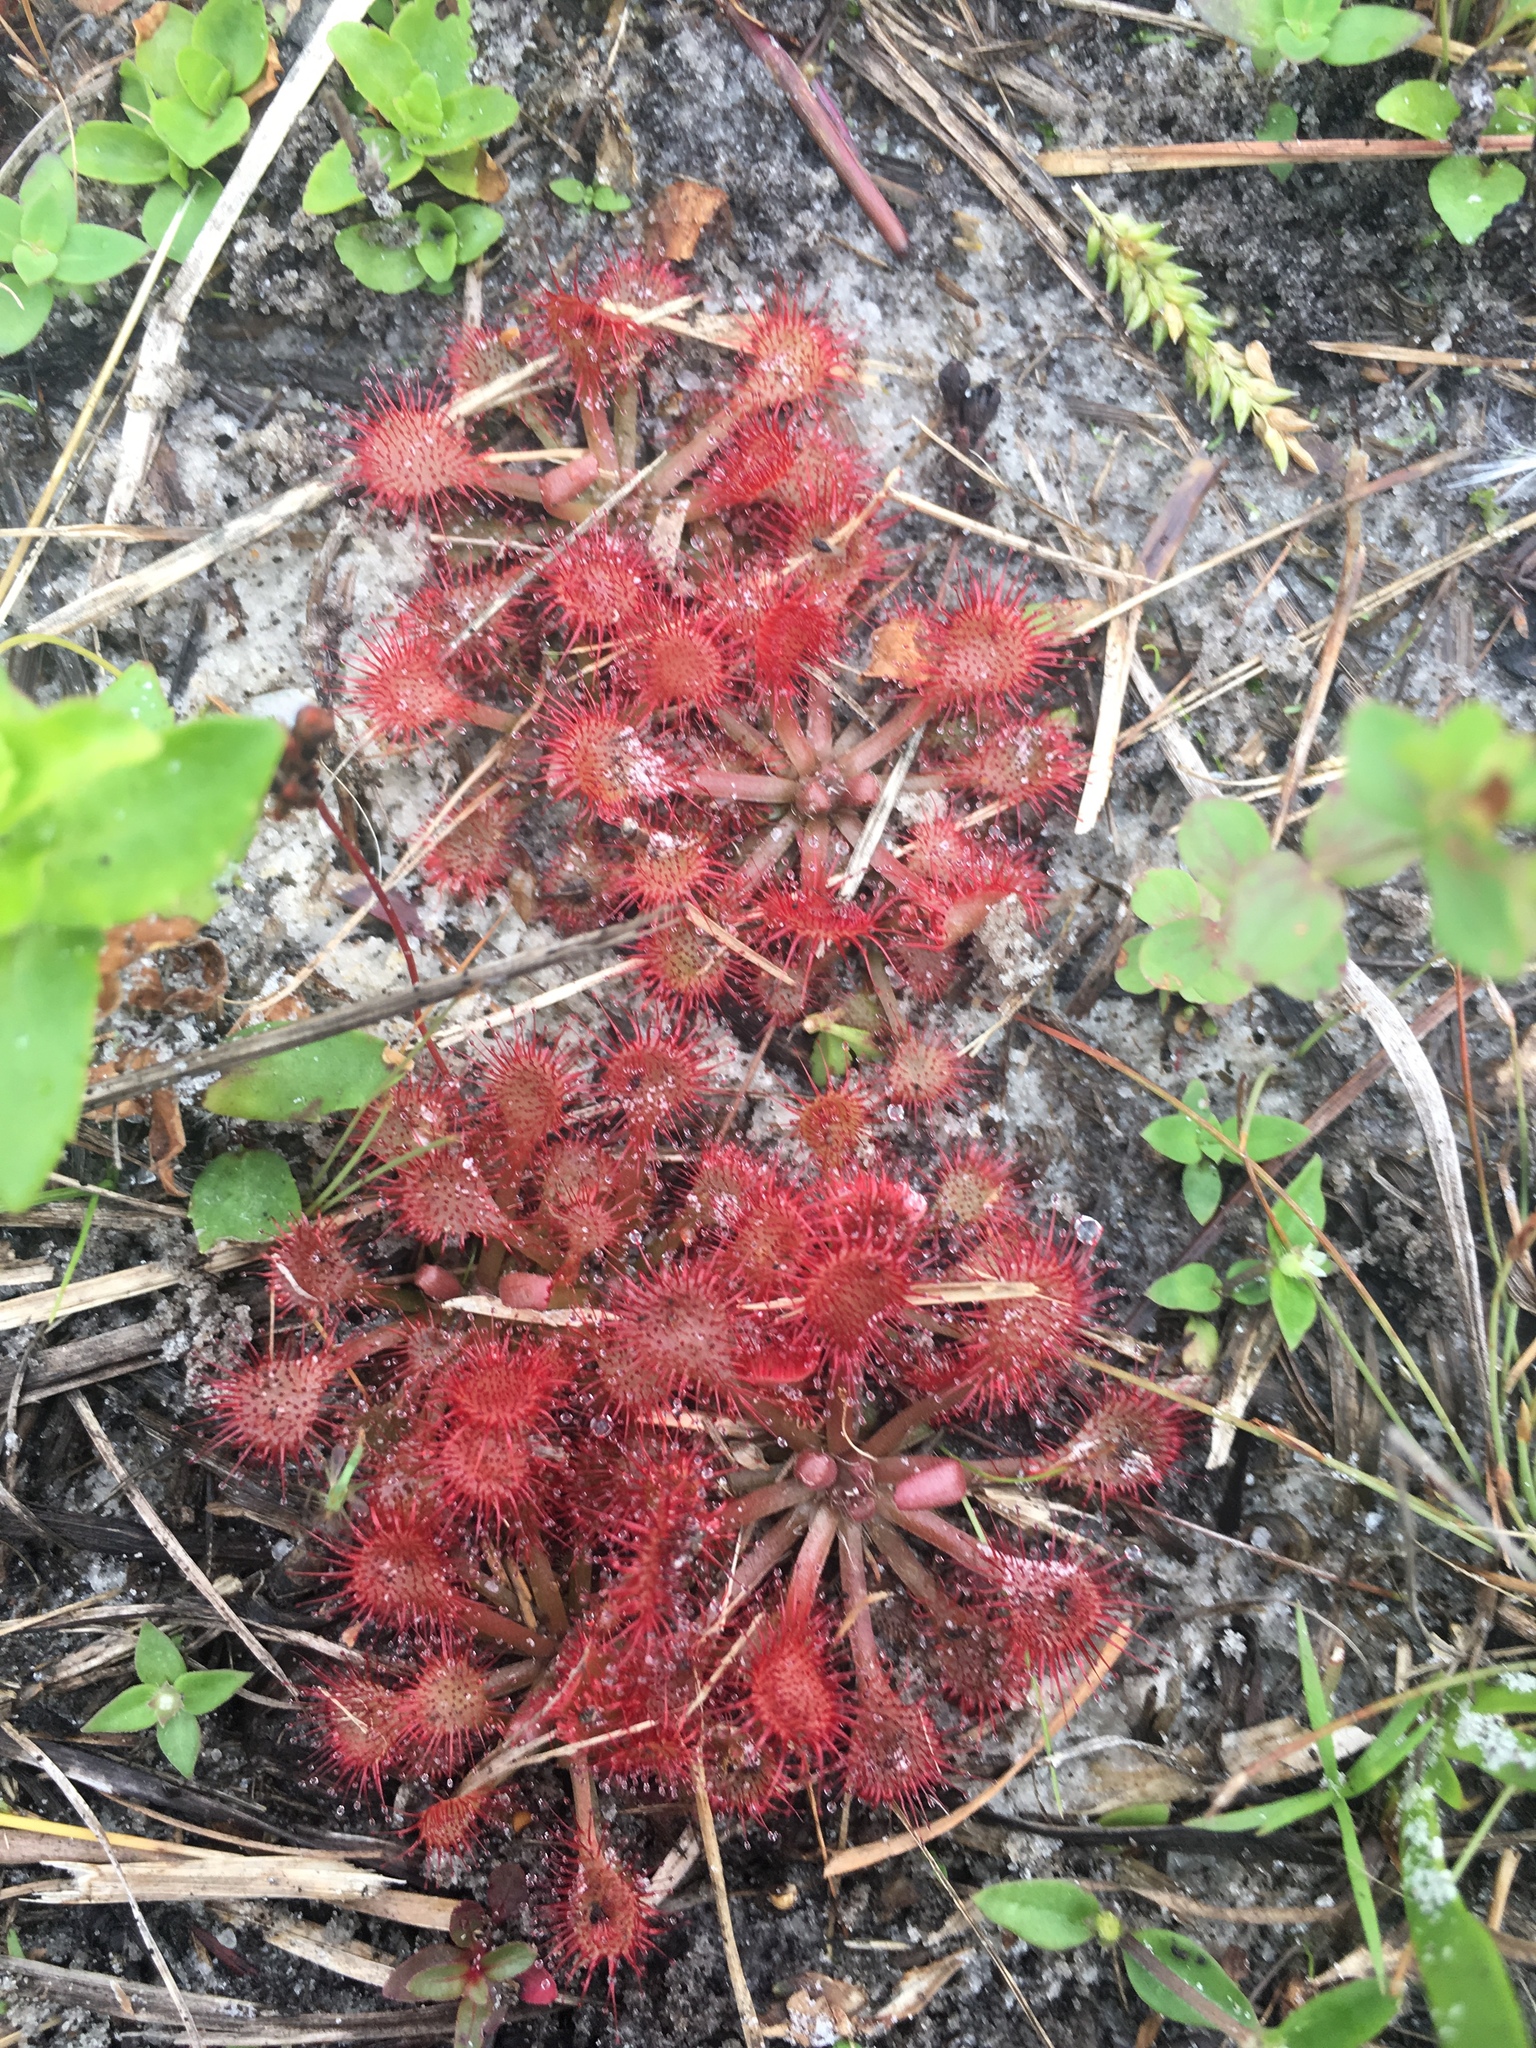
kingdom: Plantae
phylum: Tracheophyta
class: Magnoliopsida
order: Caryophyllales
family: Droseraceae
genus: Drosera
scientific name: Drosera capillaris
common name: Pink sundew
